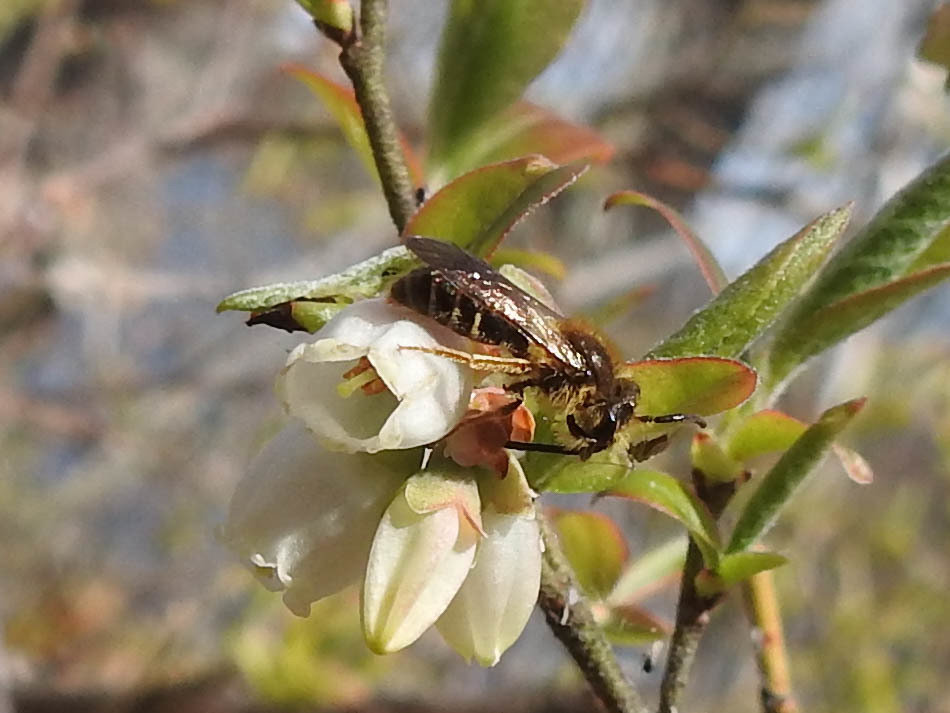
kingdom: Animalia
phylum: Arthropoda
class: Insecta
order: Hymenoptera
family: Andrenidae
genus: Andrena
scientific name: Andrena
